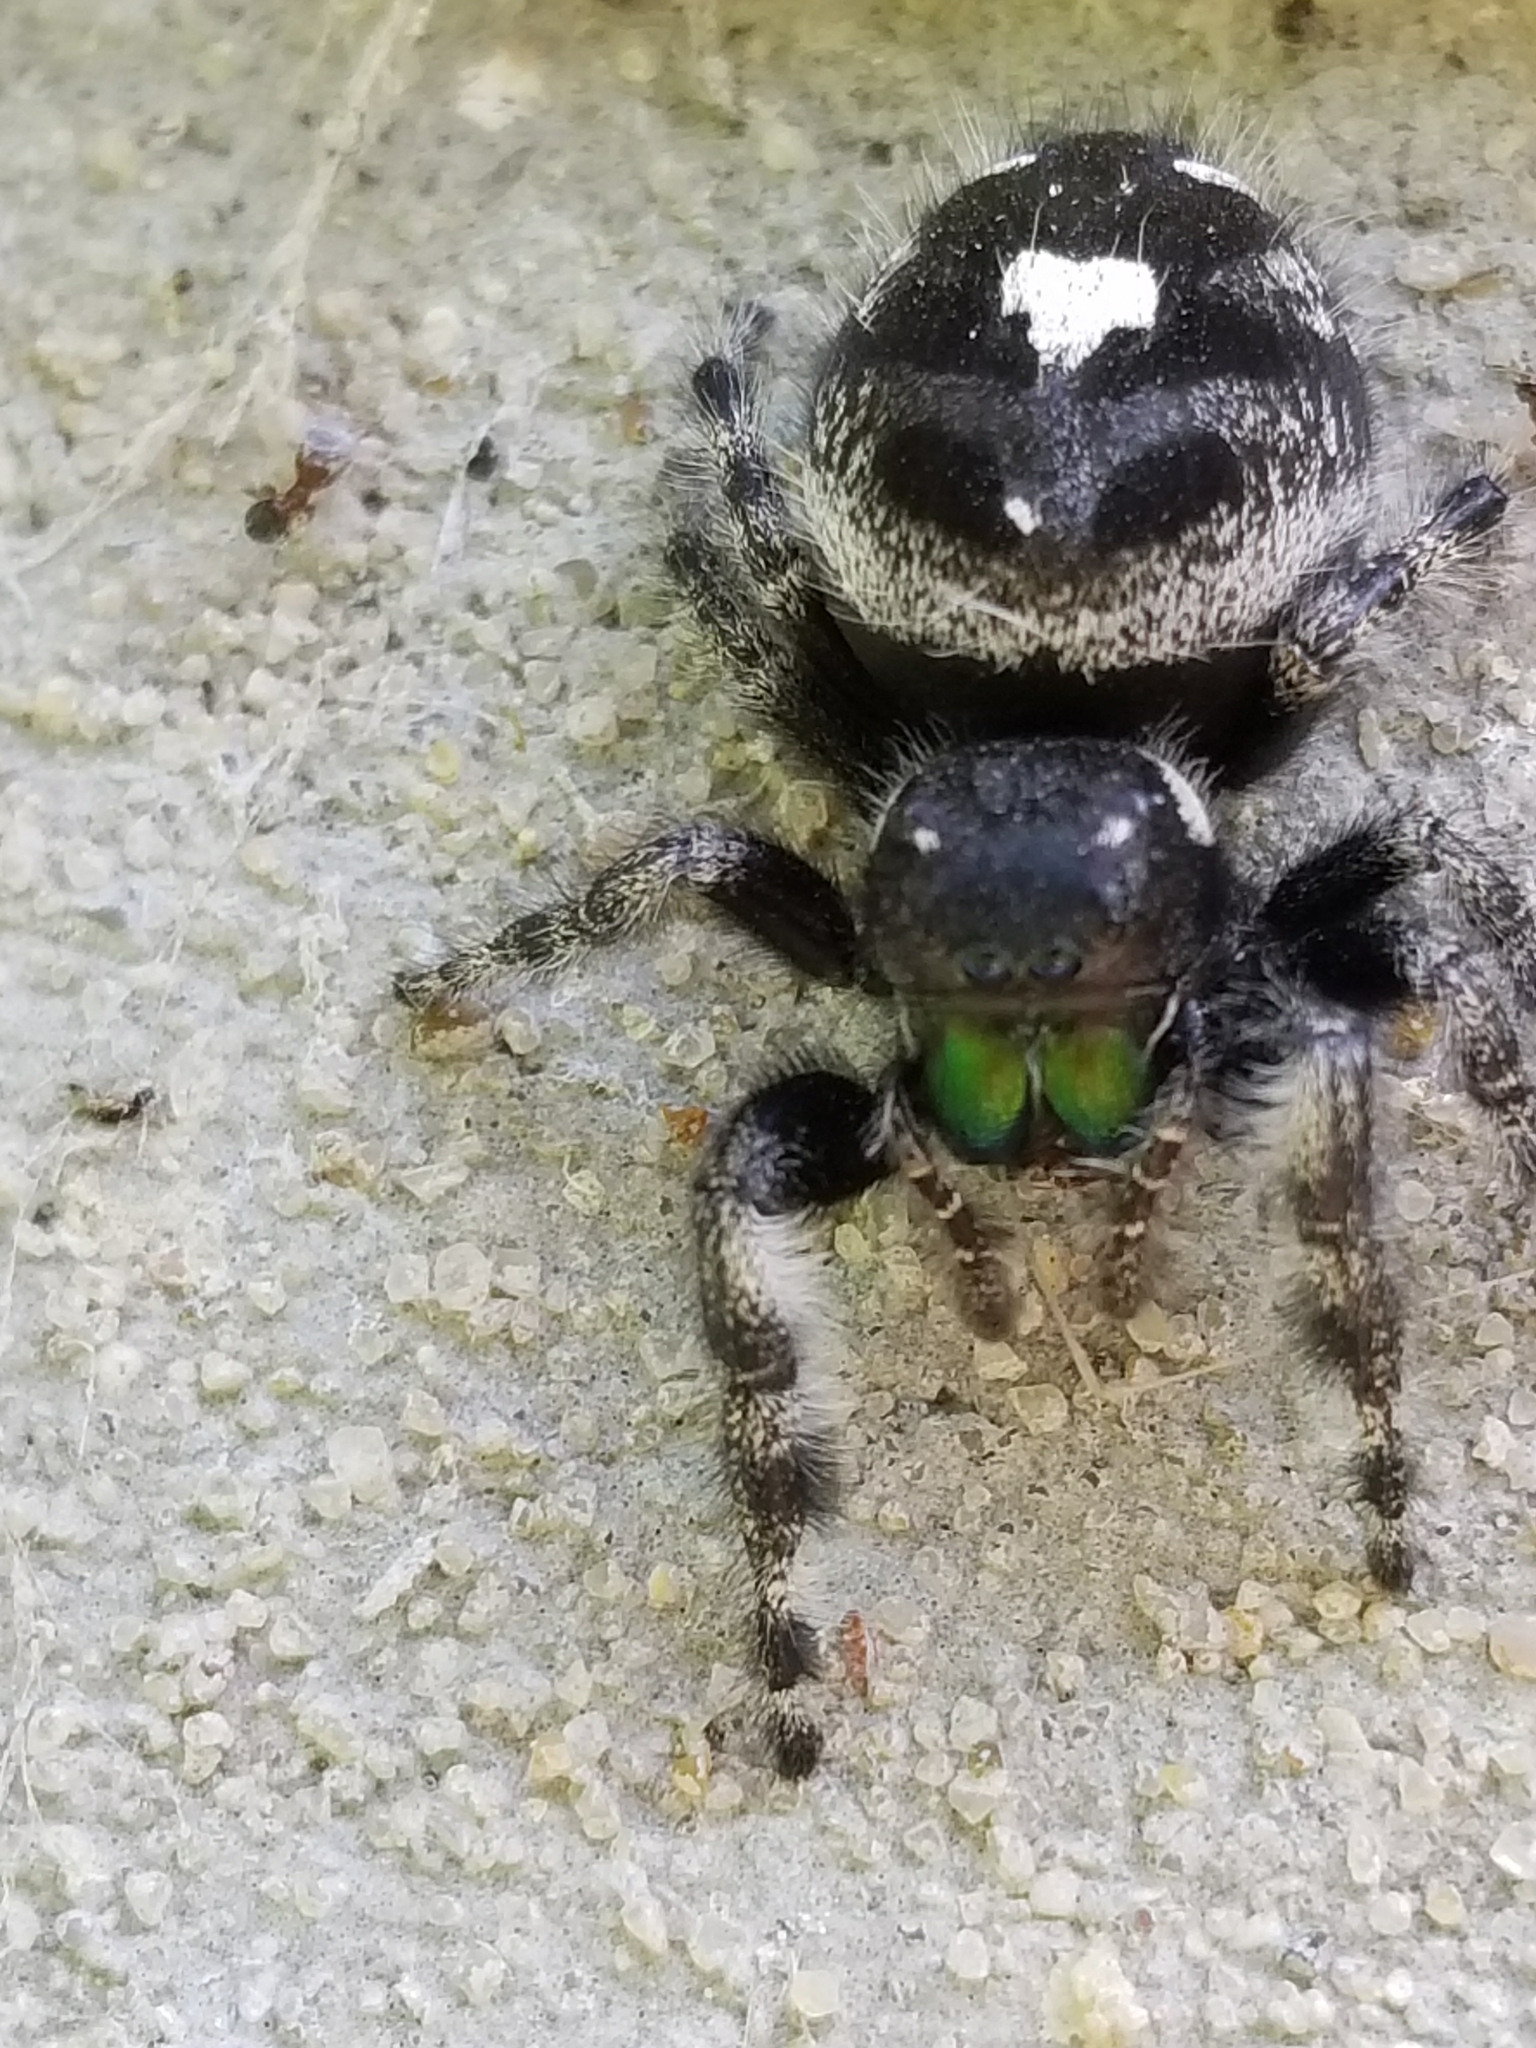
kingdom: Animalia
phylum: Arthropoda
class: Arachnida
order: Araneae
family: Salticidae
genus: Phidippus
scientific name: Phidippus audax
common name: Bold jumper
